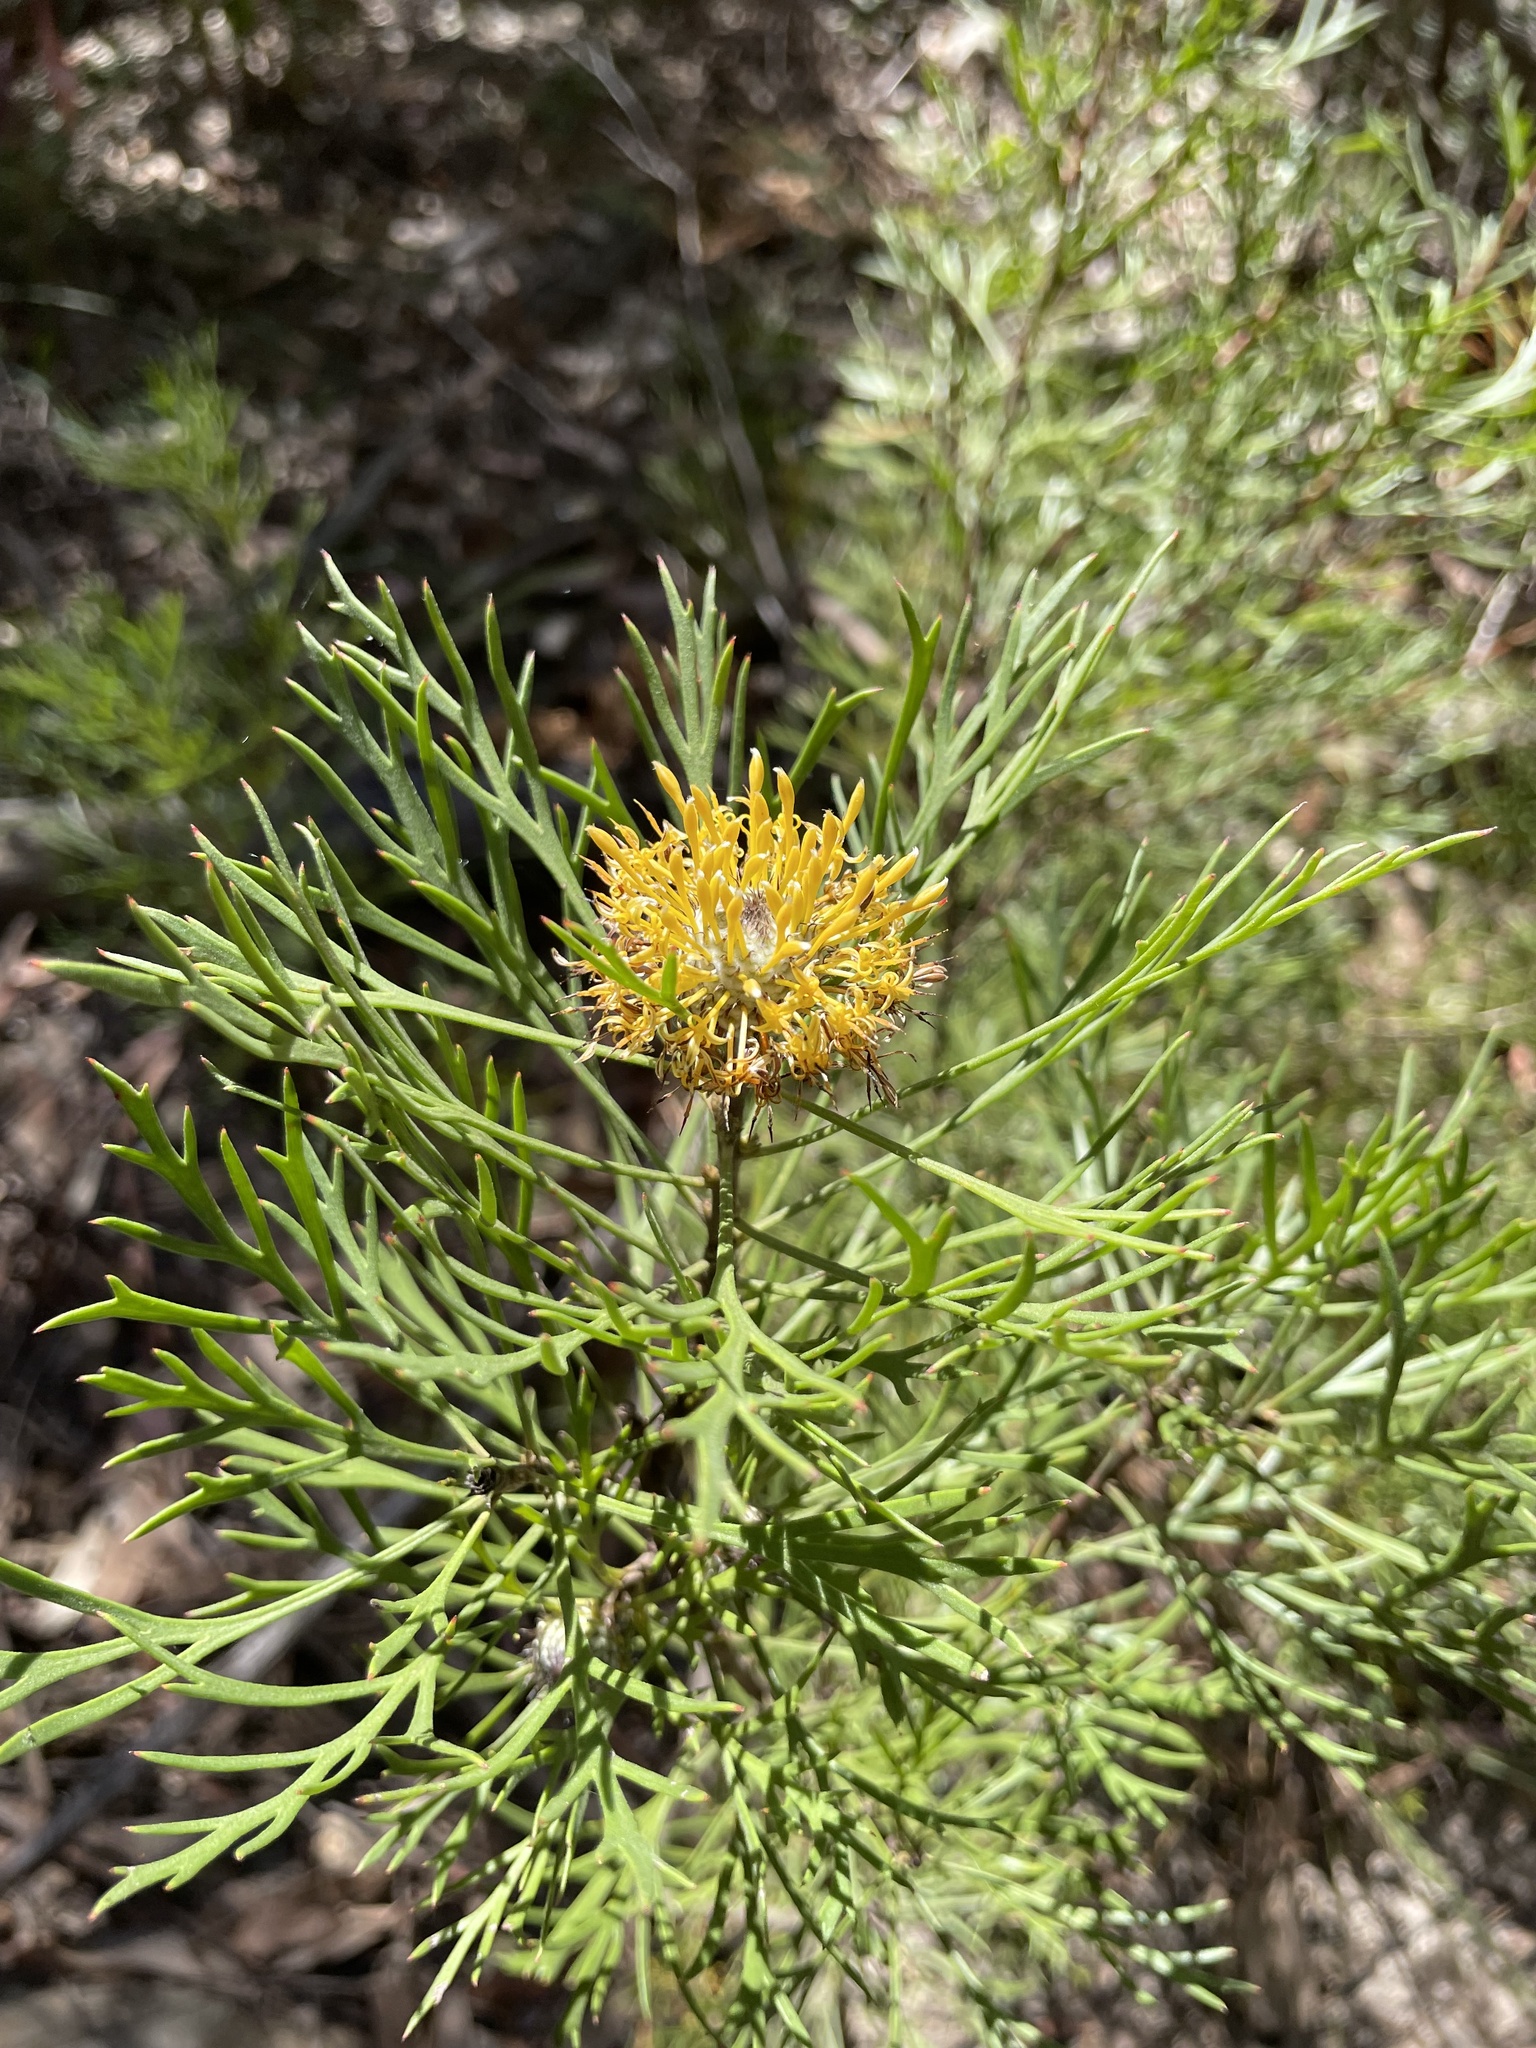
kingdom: Plantae
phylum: Tracheophyta
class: Magnoliopsida
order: Proteales
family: Proteaceae
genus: Isopogon
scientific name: Isopogon anemonifolius
